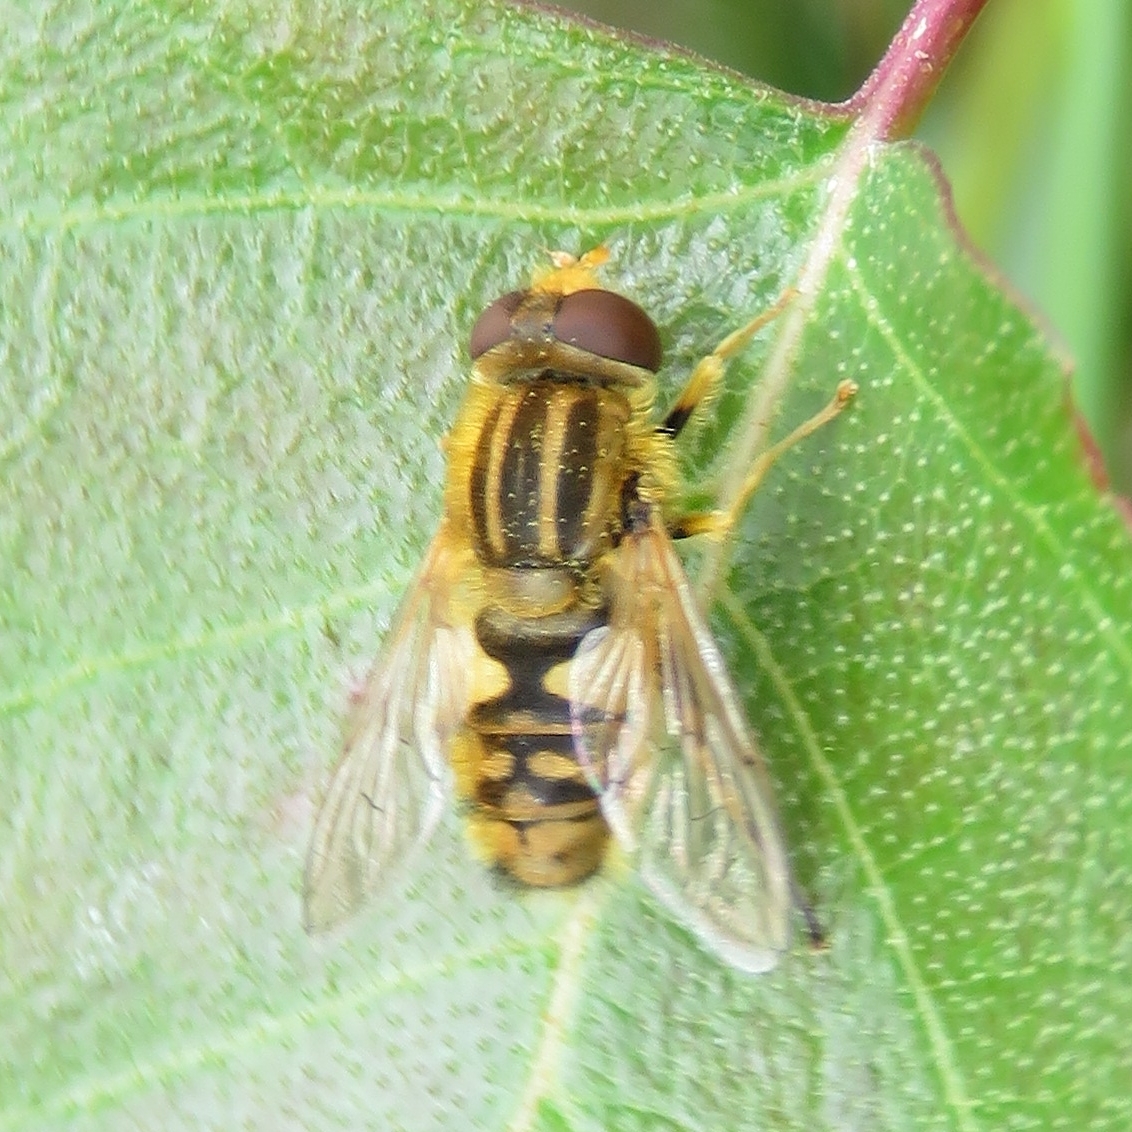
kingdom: Animalia
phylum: Arthropoda
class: Insecta
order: Diptera
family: Syrphidae
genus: Parhelophilus
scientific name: Parhelophilus
